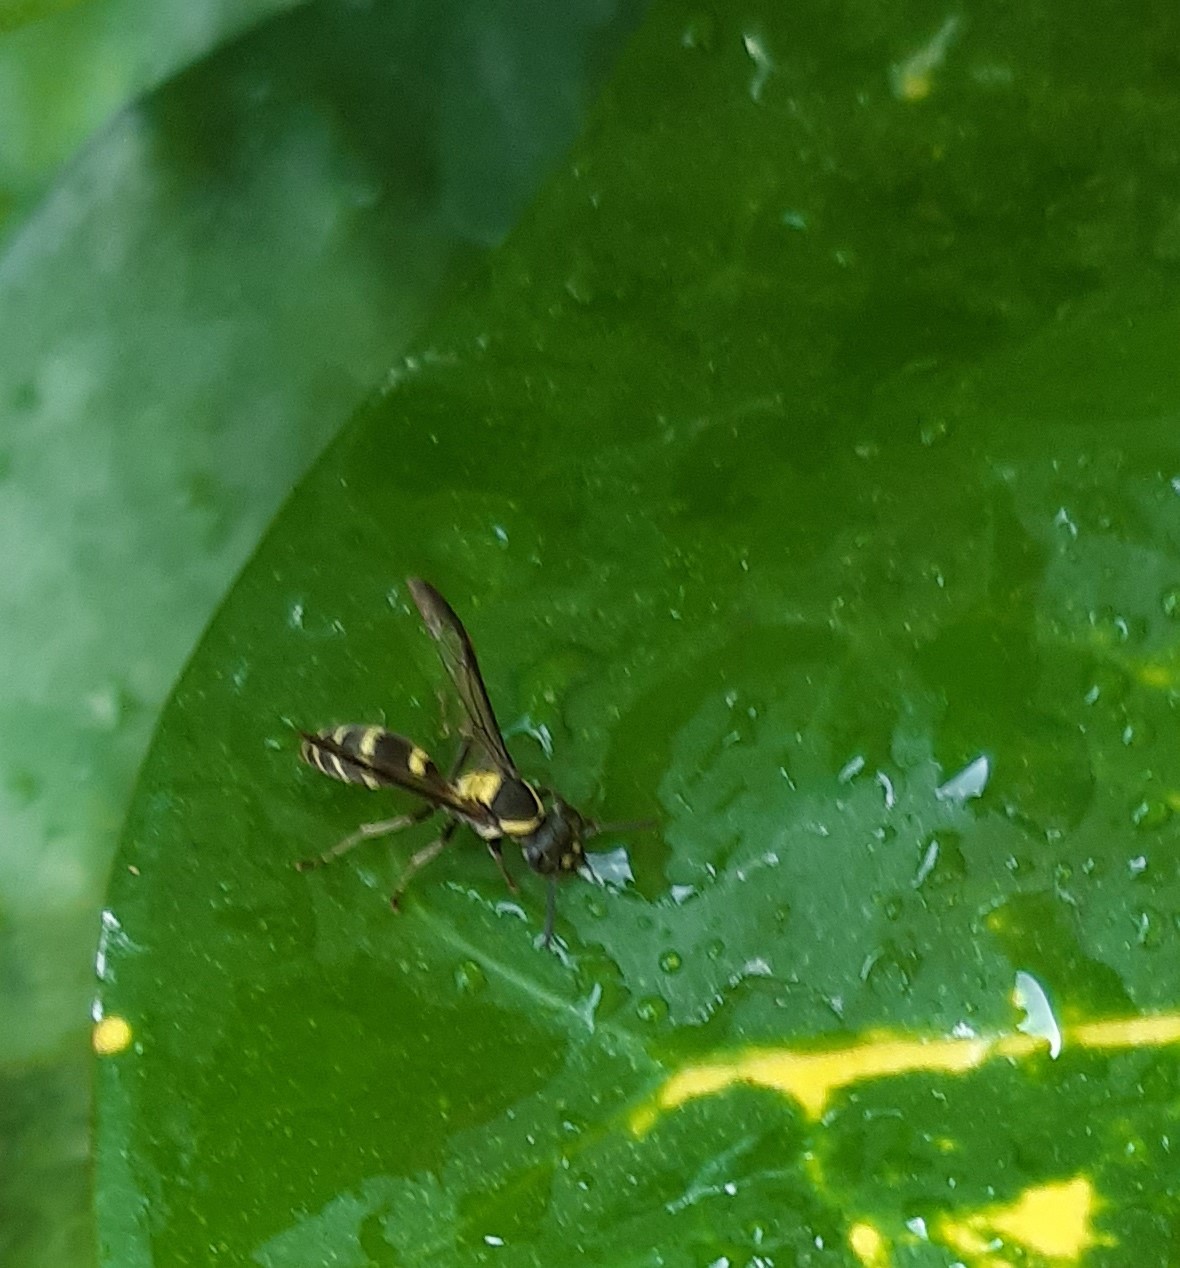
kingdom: Animalia
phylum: Arthropoda
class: Insecta
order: Hymenoptera
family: Eumenidae
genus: Polybia
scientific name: Polybia occidentalis
